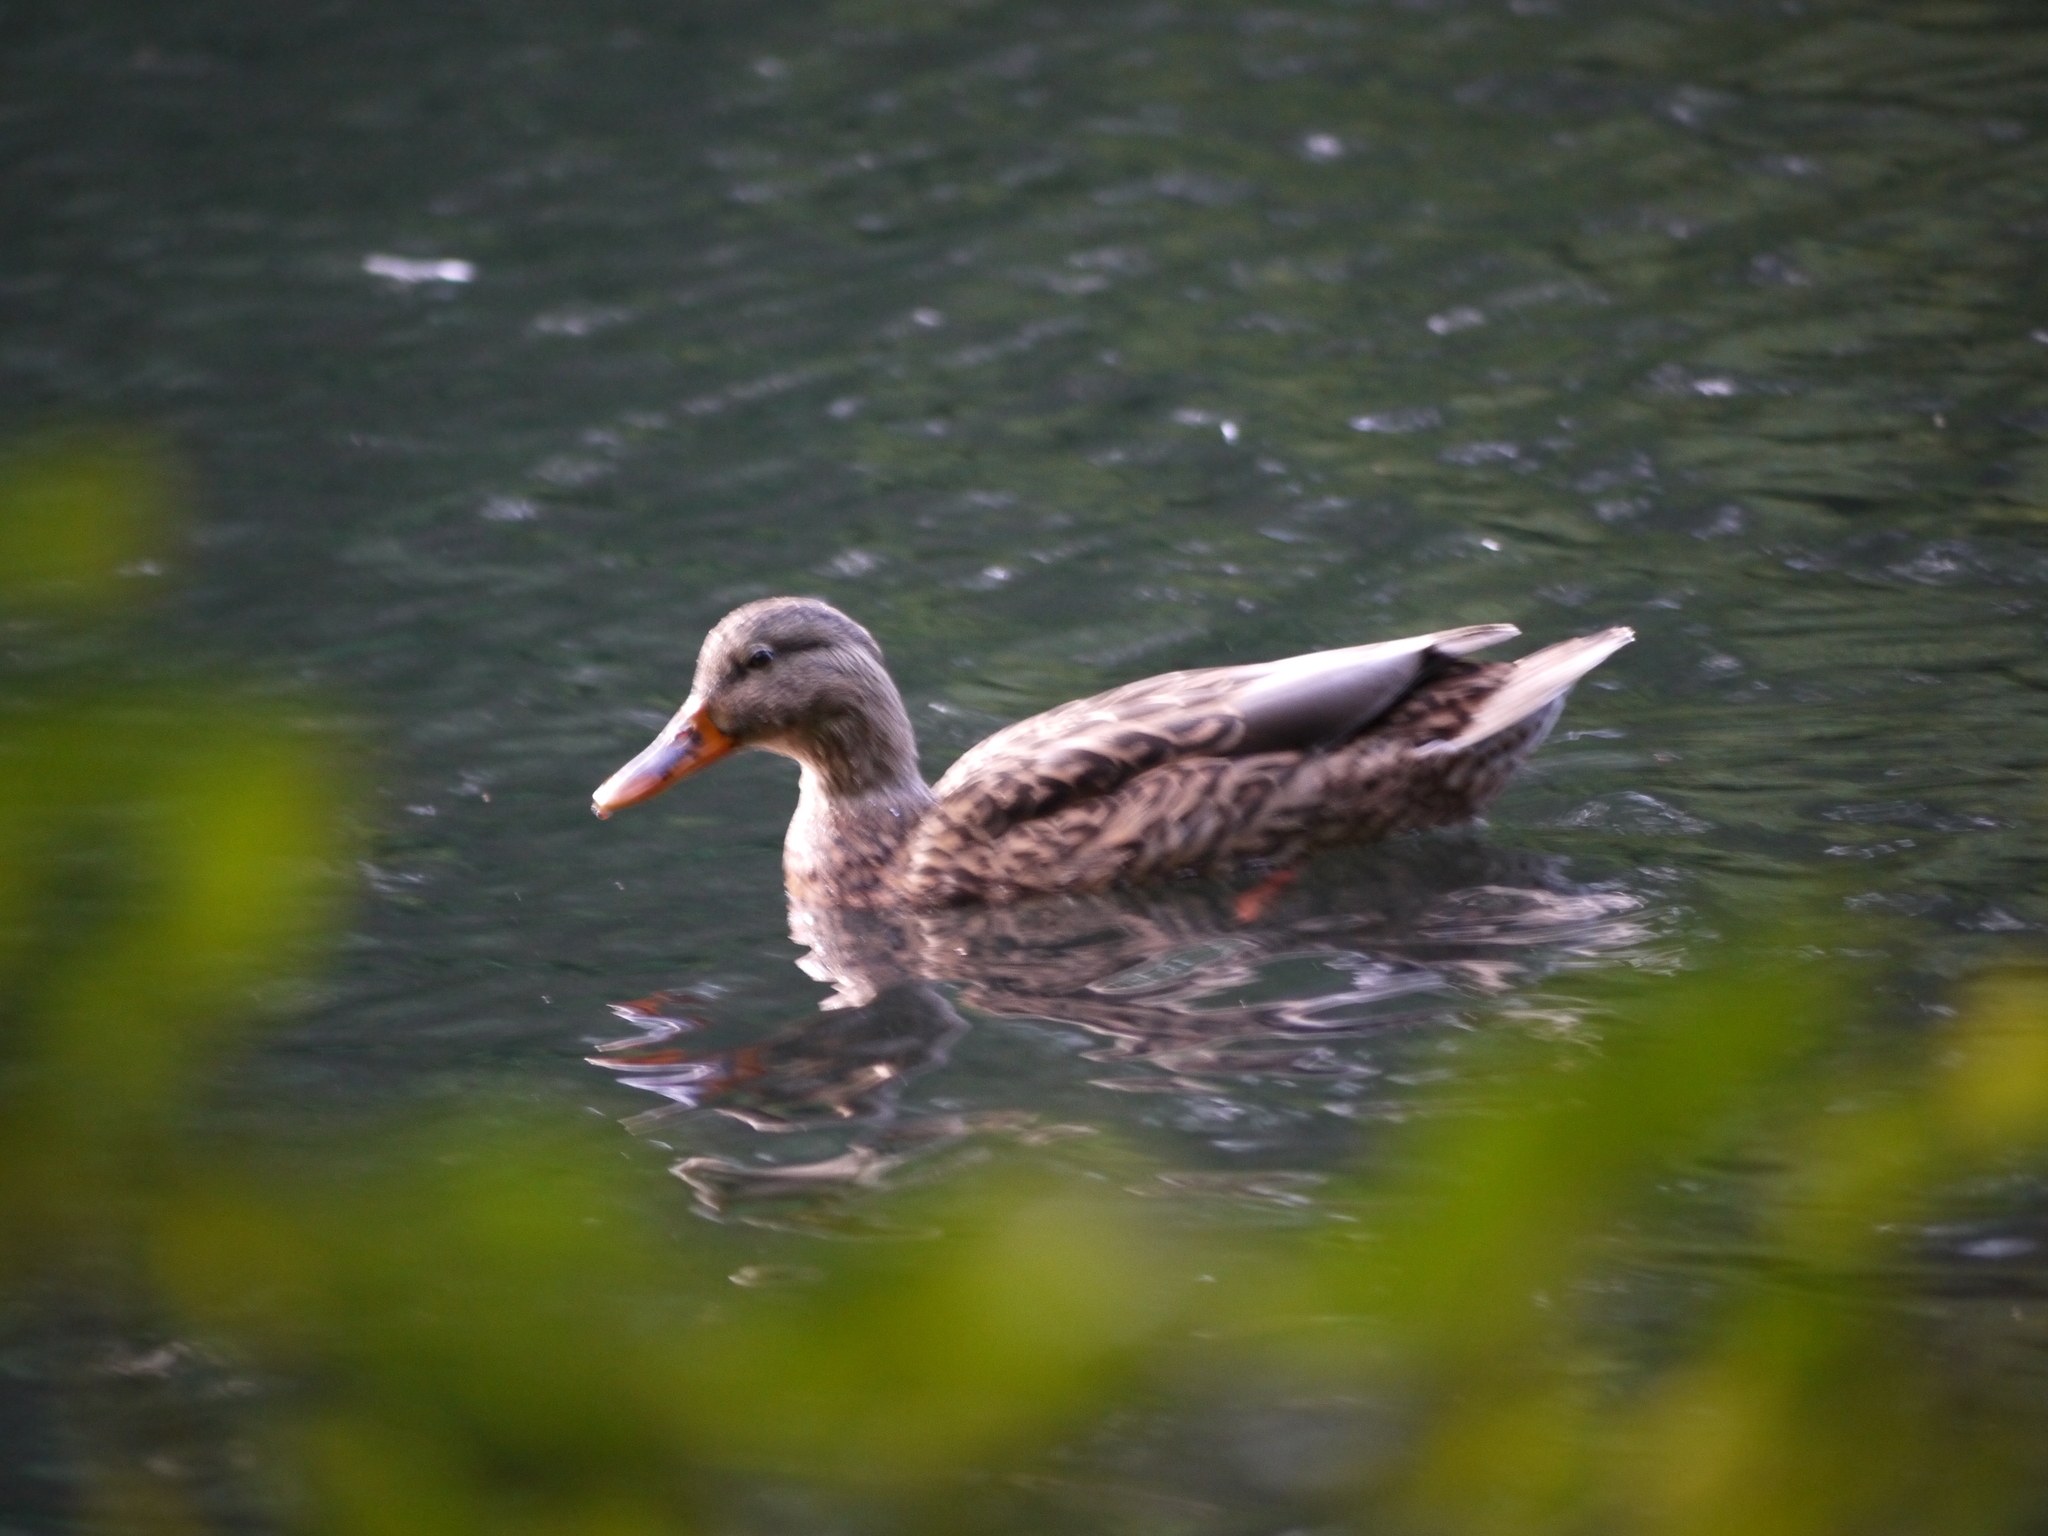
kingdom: Animalia
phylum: Chordata
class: Aves
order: Anseriformes
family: Anatidae
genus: Anas
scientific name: Anas platyrhynchos
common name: Mallard
